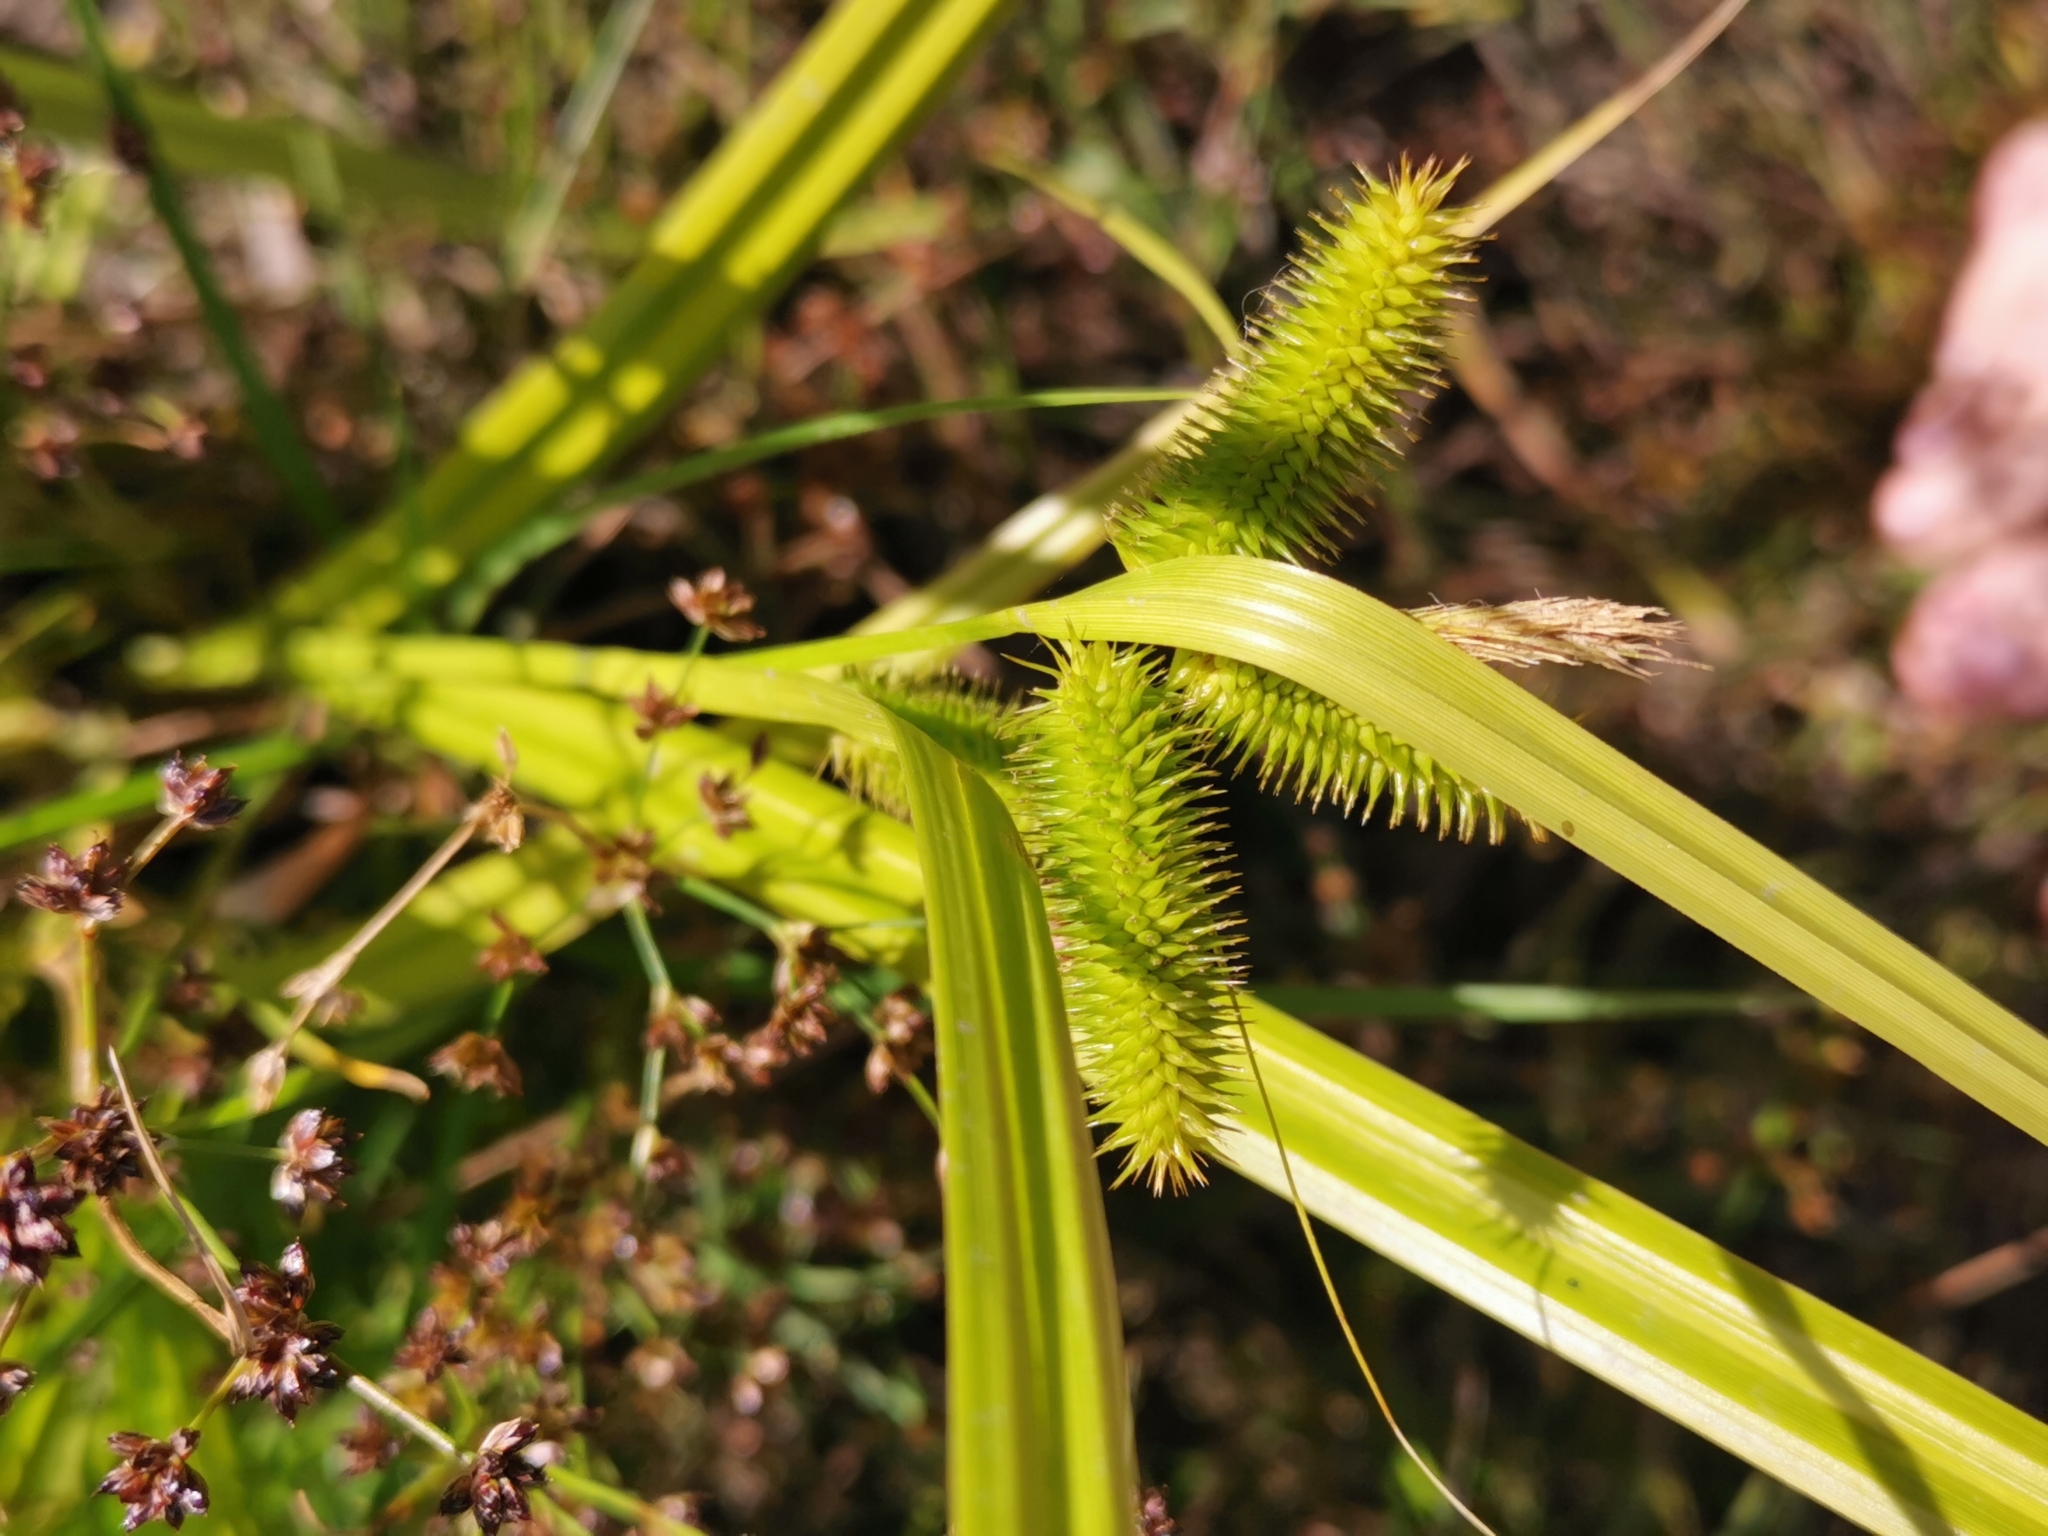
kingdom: Plantae
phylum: Tracheophyta
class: Liliopsida
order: Poales
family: Cyperaceae
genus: Carex
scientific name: Carex pseudocyperus
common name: Cyperus sedge
